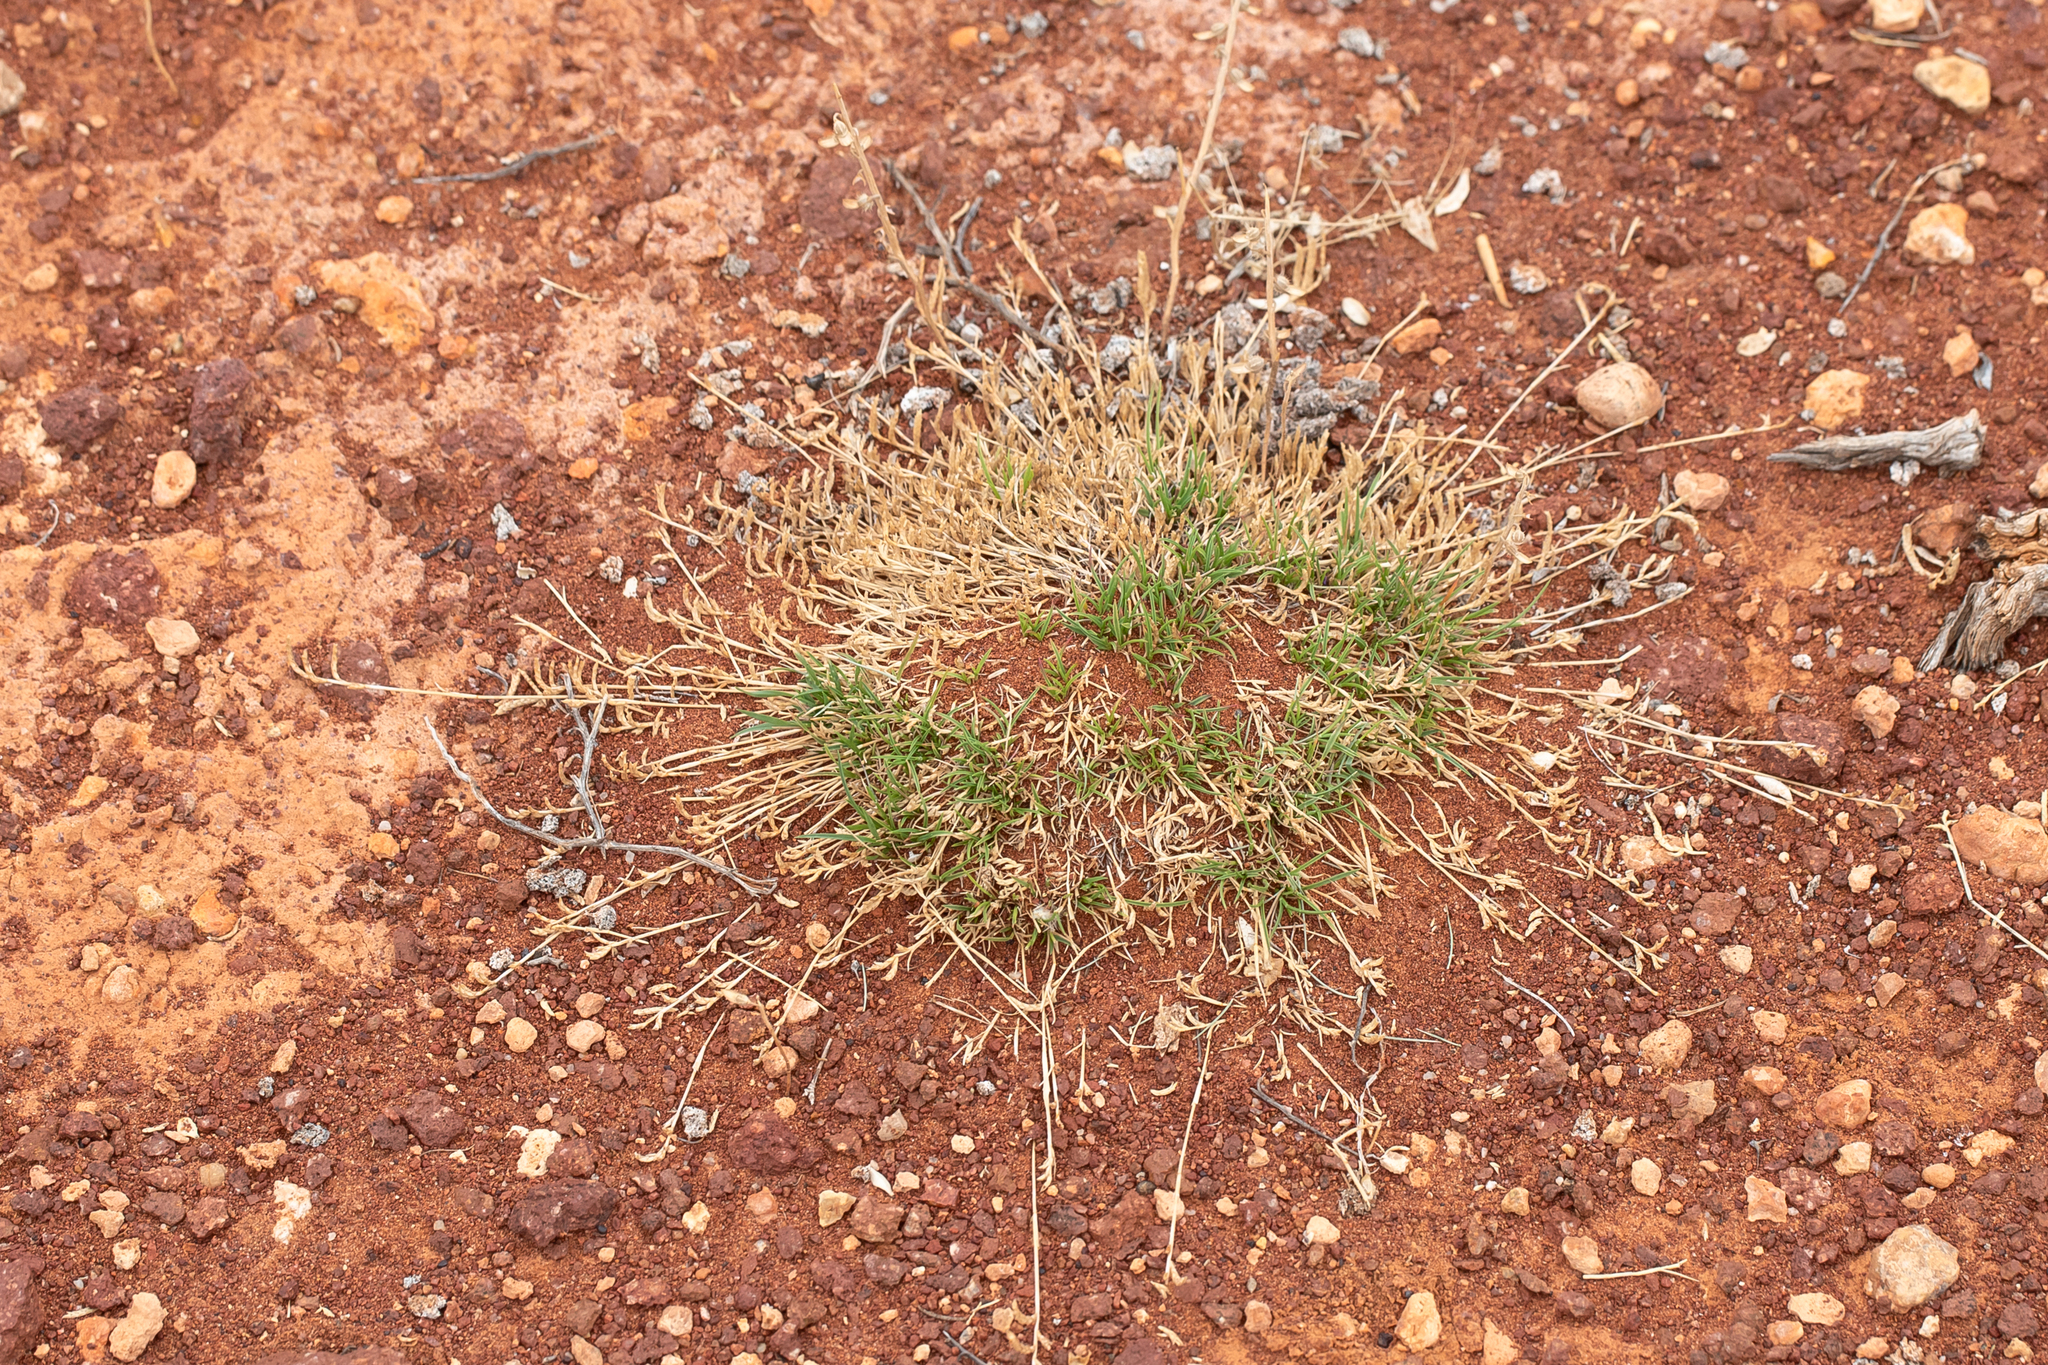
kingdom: Plantae
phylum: Tracheophyta
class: Liliopsida
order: Poales
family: Poaceae
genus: Eragrostis
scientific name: Eragrostis dielsii
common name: Lovegrass
